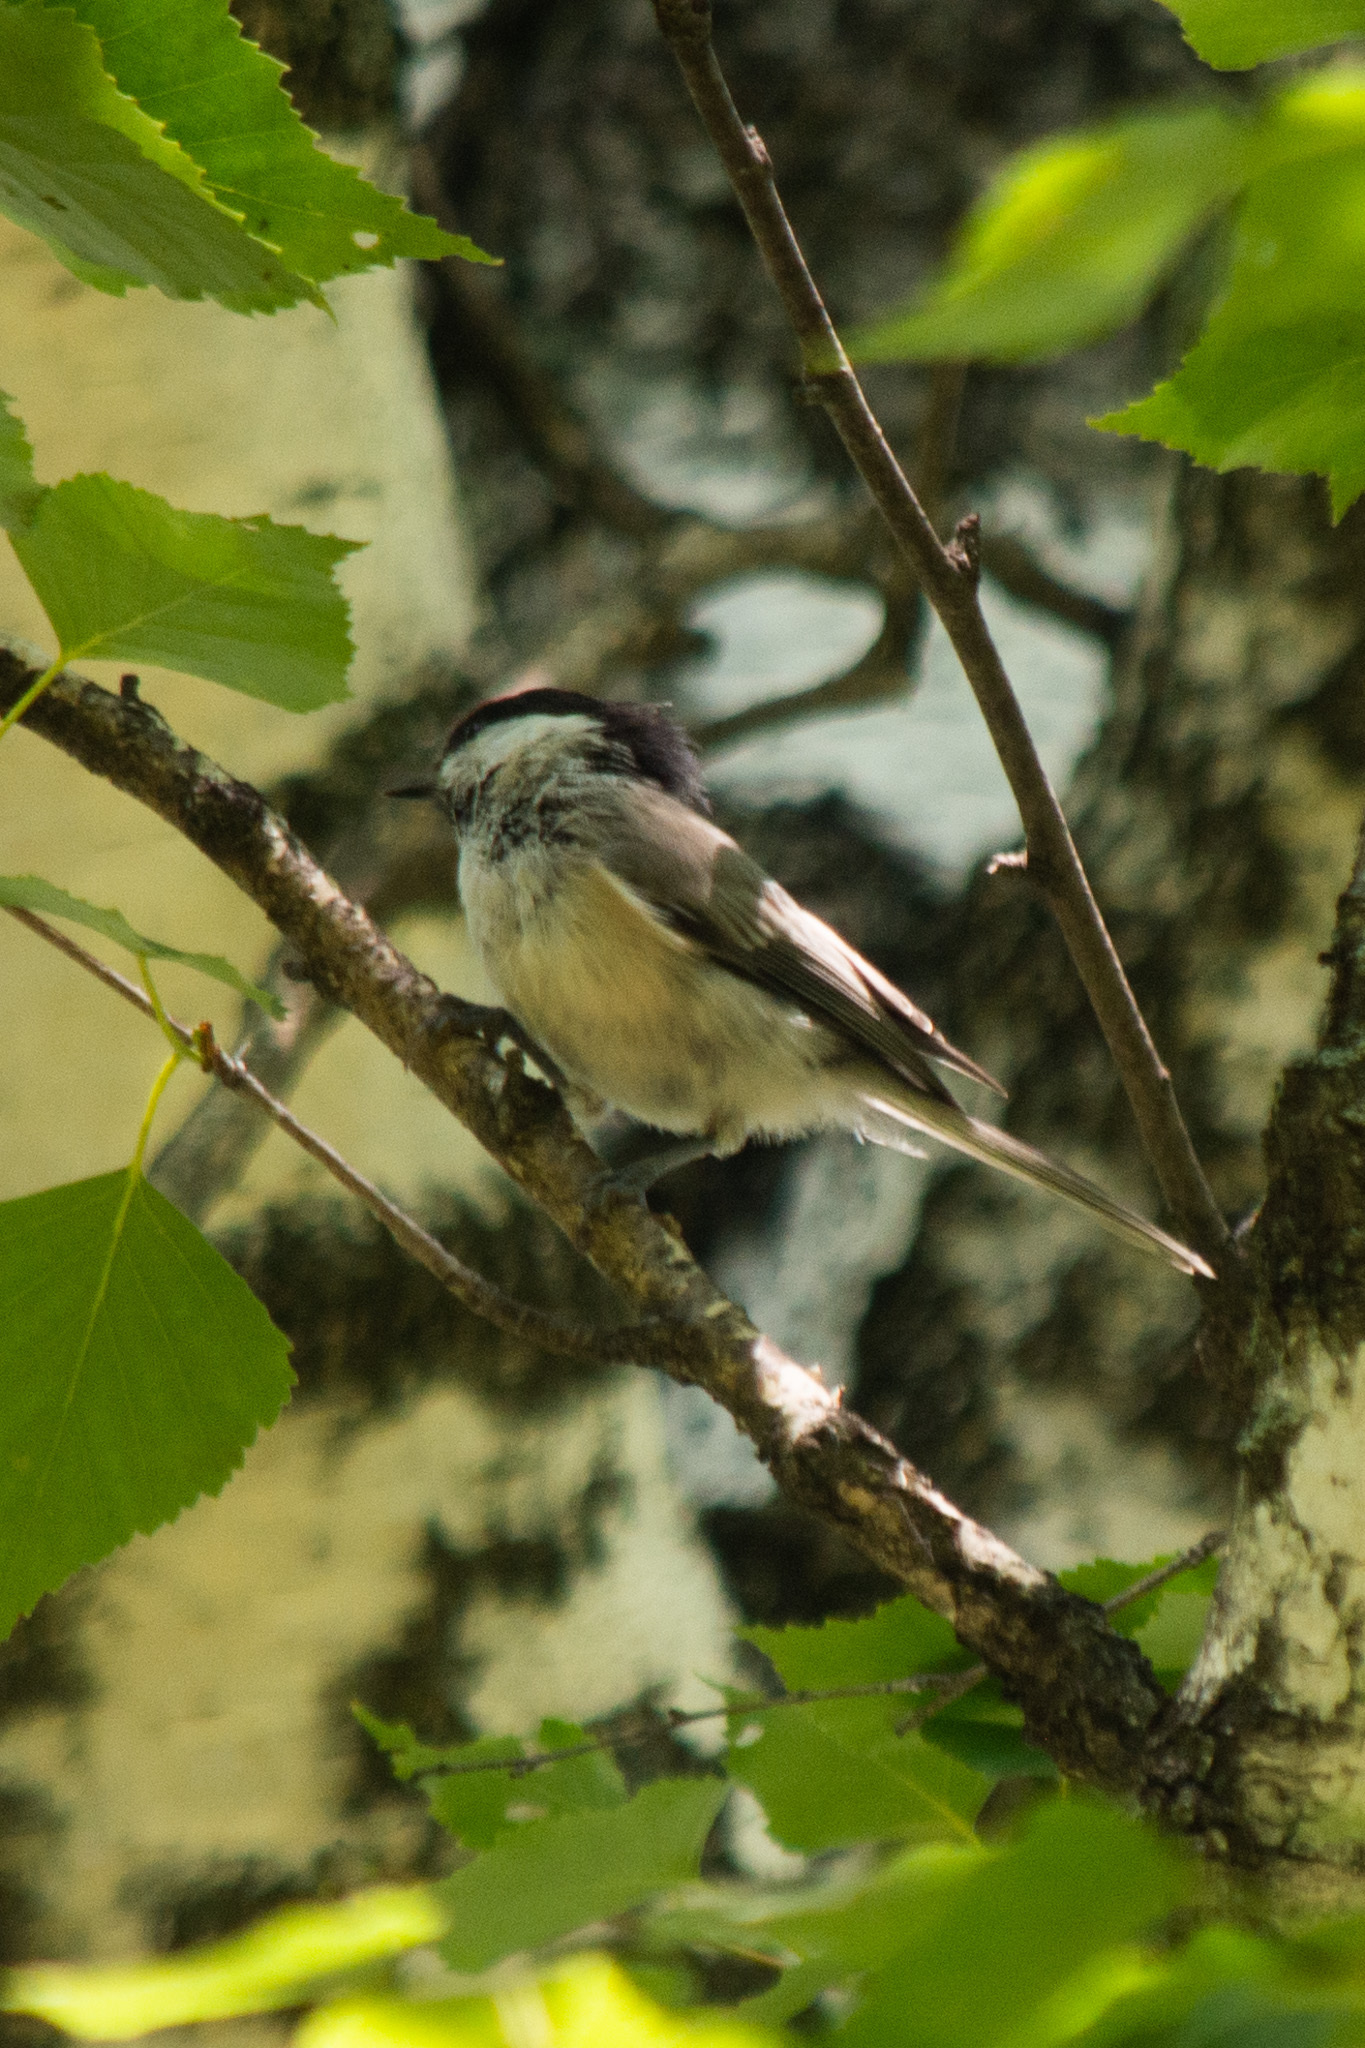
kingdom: Animalia
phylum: Chordata
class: Aves
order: Passeriformes
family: Paridae
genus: Poecile
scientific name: Poecile montanus
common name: Willow tit
